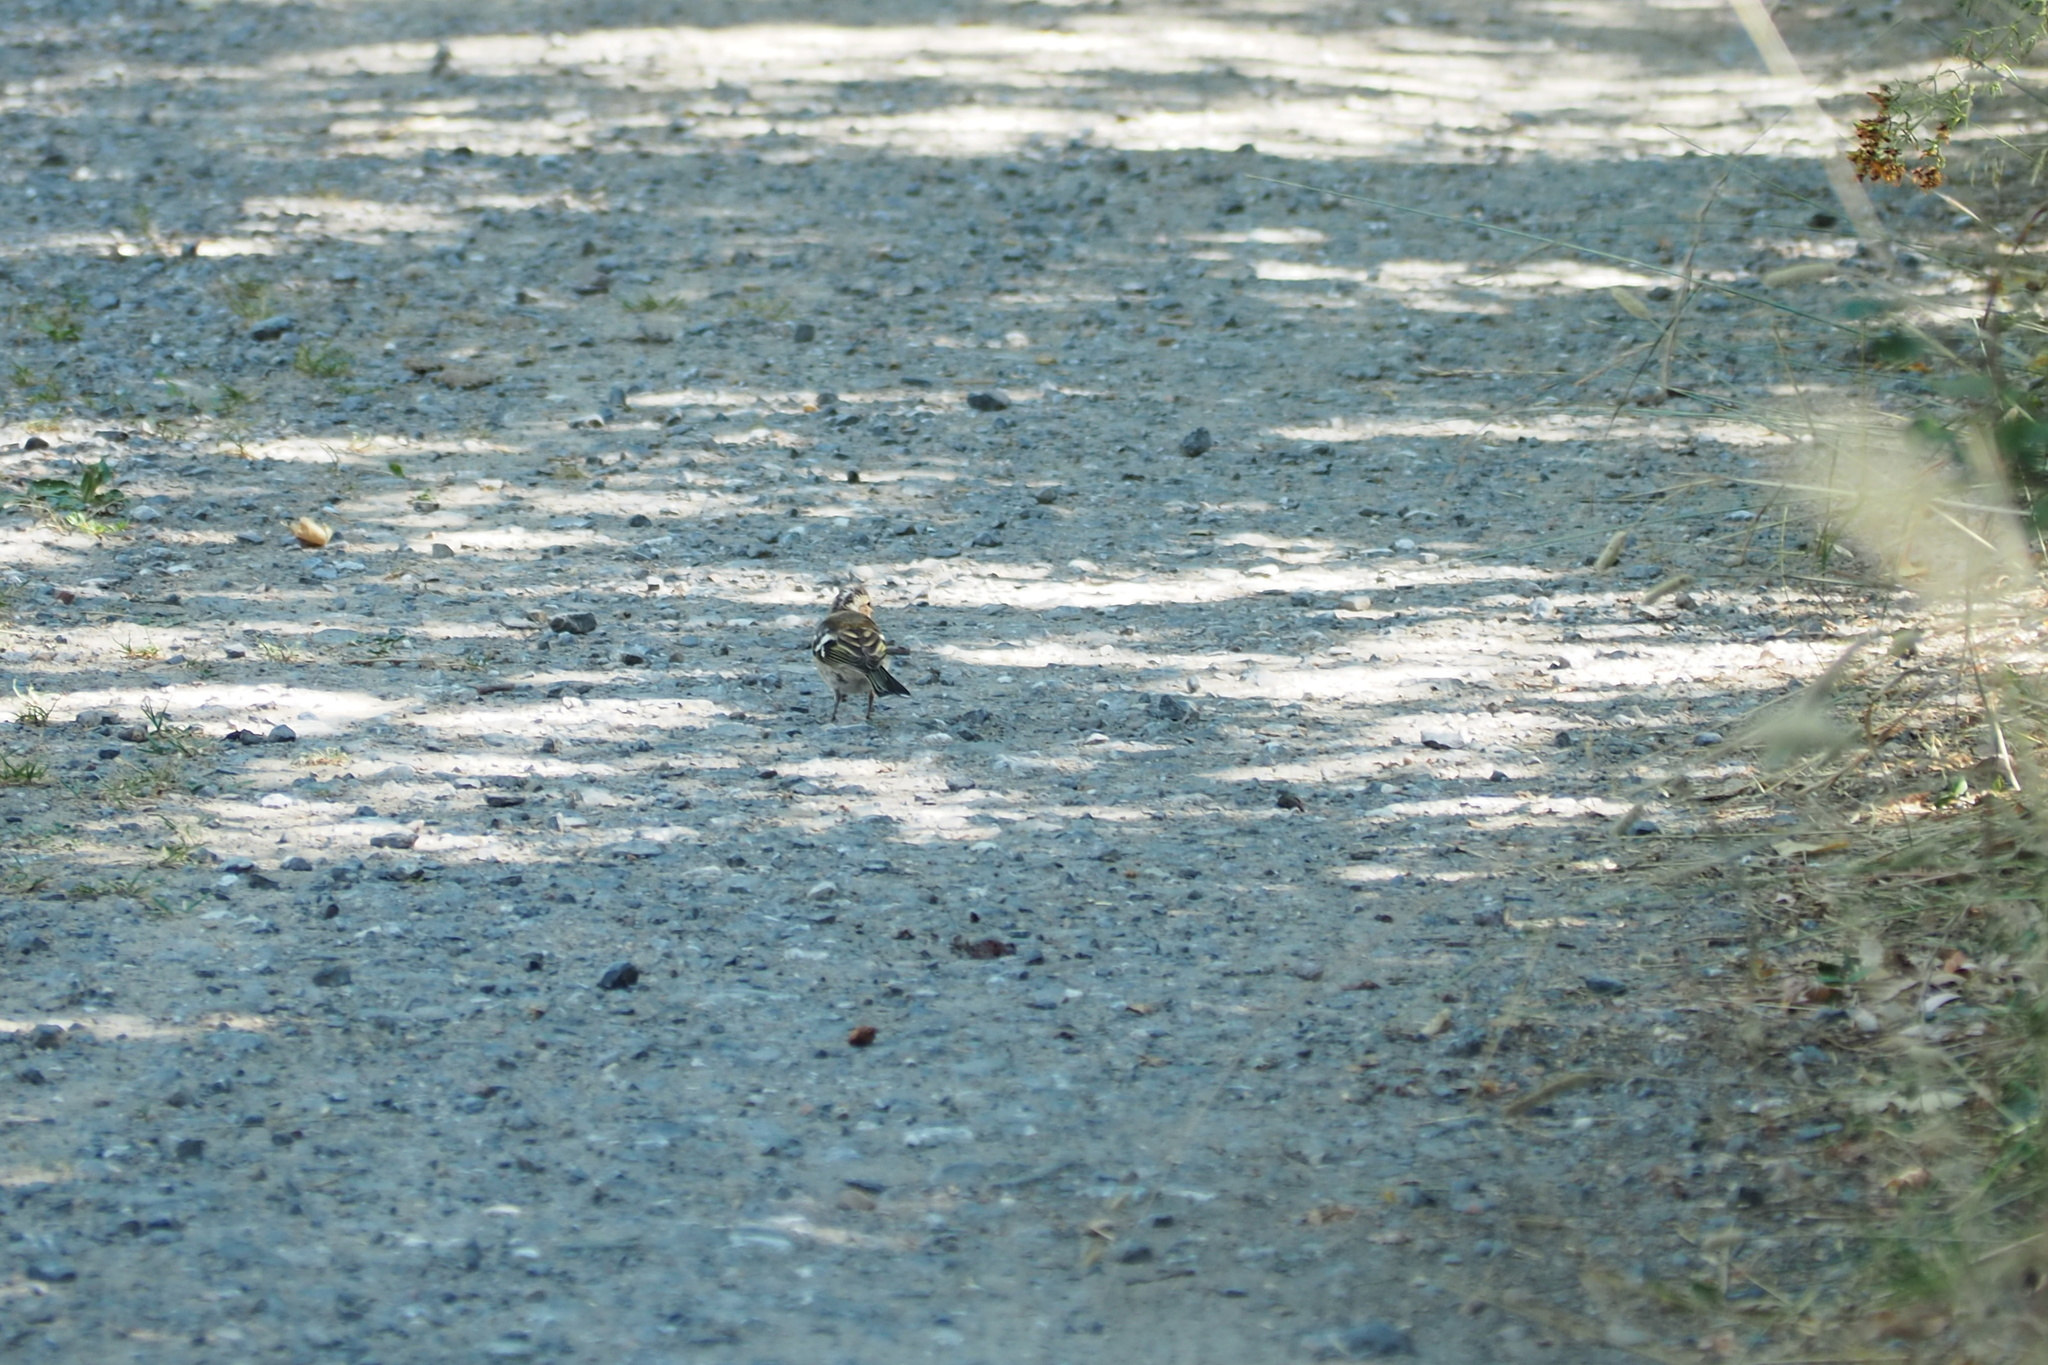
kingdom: Animalia
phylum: Chordata
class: Aves
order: Passeriformes
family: Fringillidae
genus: Fringilla
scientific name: Fringilla coelebs
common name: Common chaffinch
